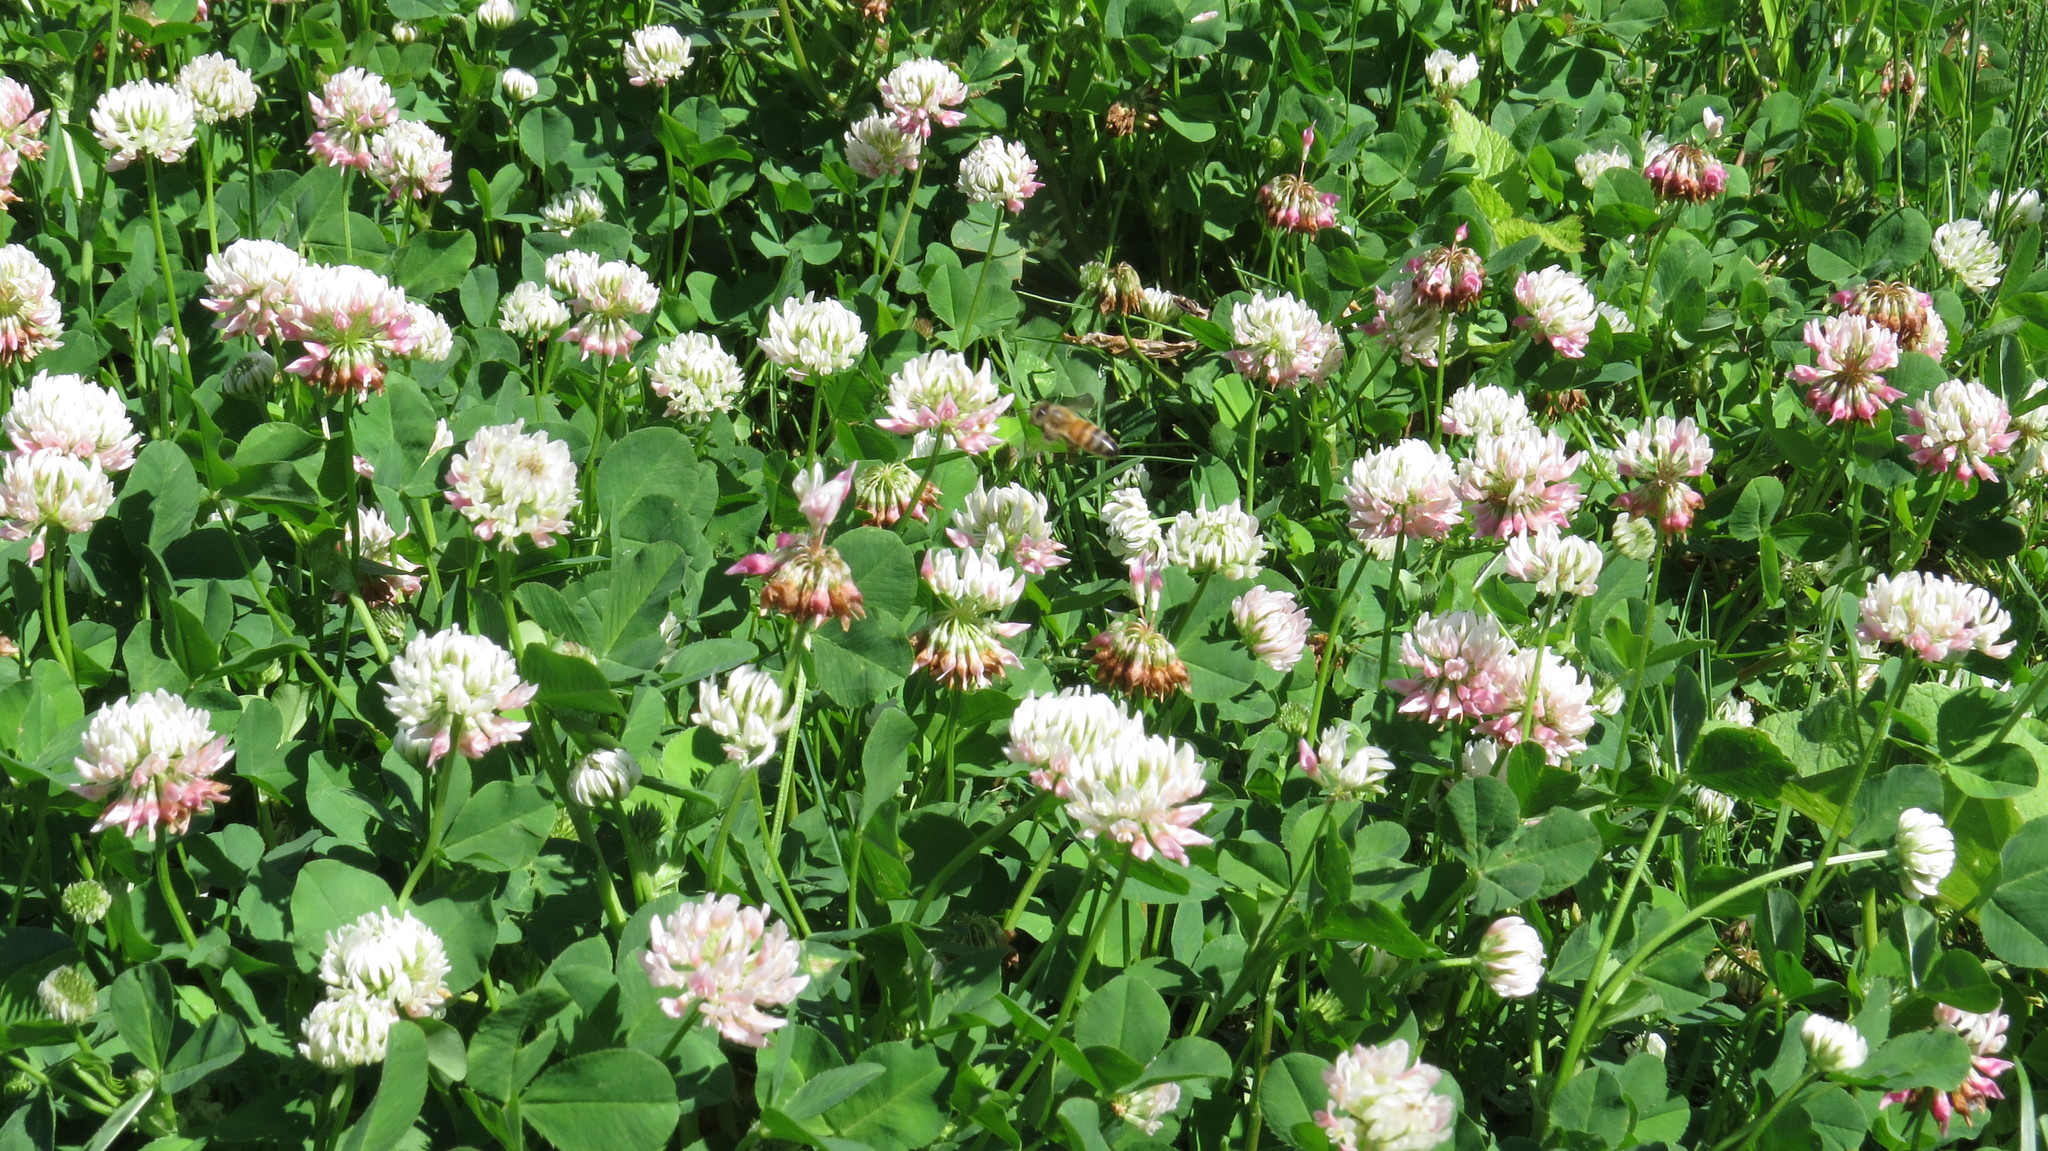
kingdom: Plantae
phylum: Tracheophyta
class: Magnoliopsida
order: Fabales
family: Fabaceae
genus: Trifolium
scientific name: Trifolium hybridum
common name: Alsike clover
